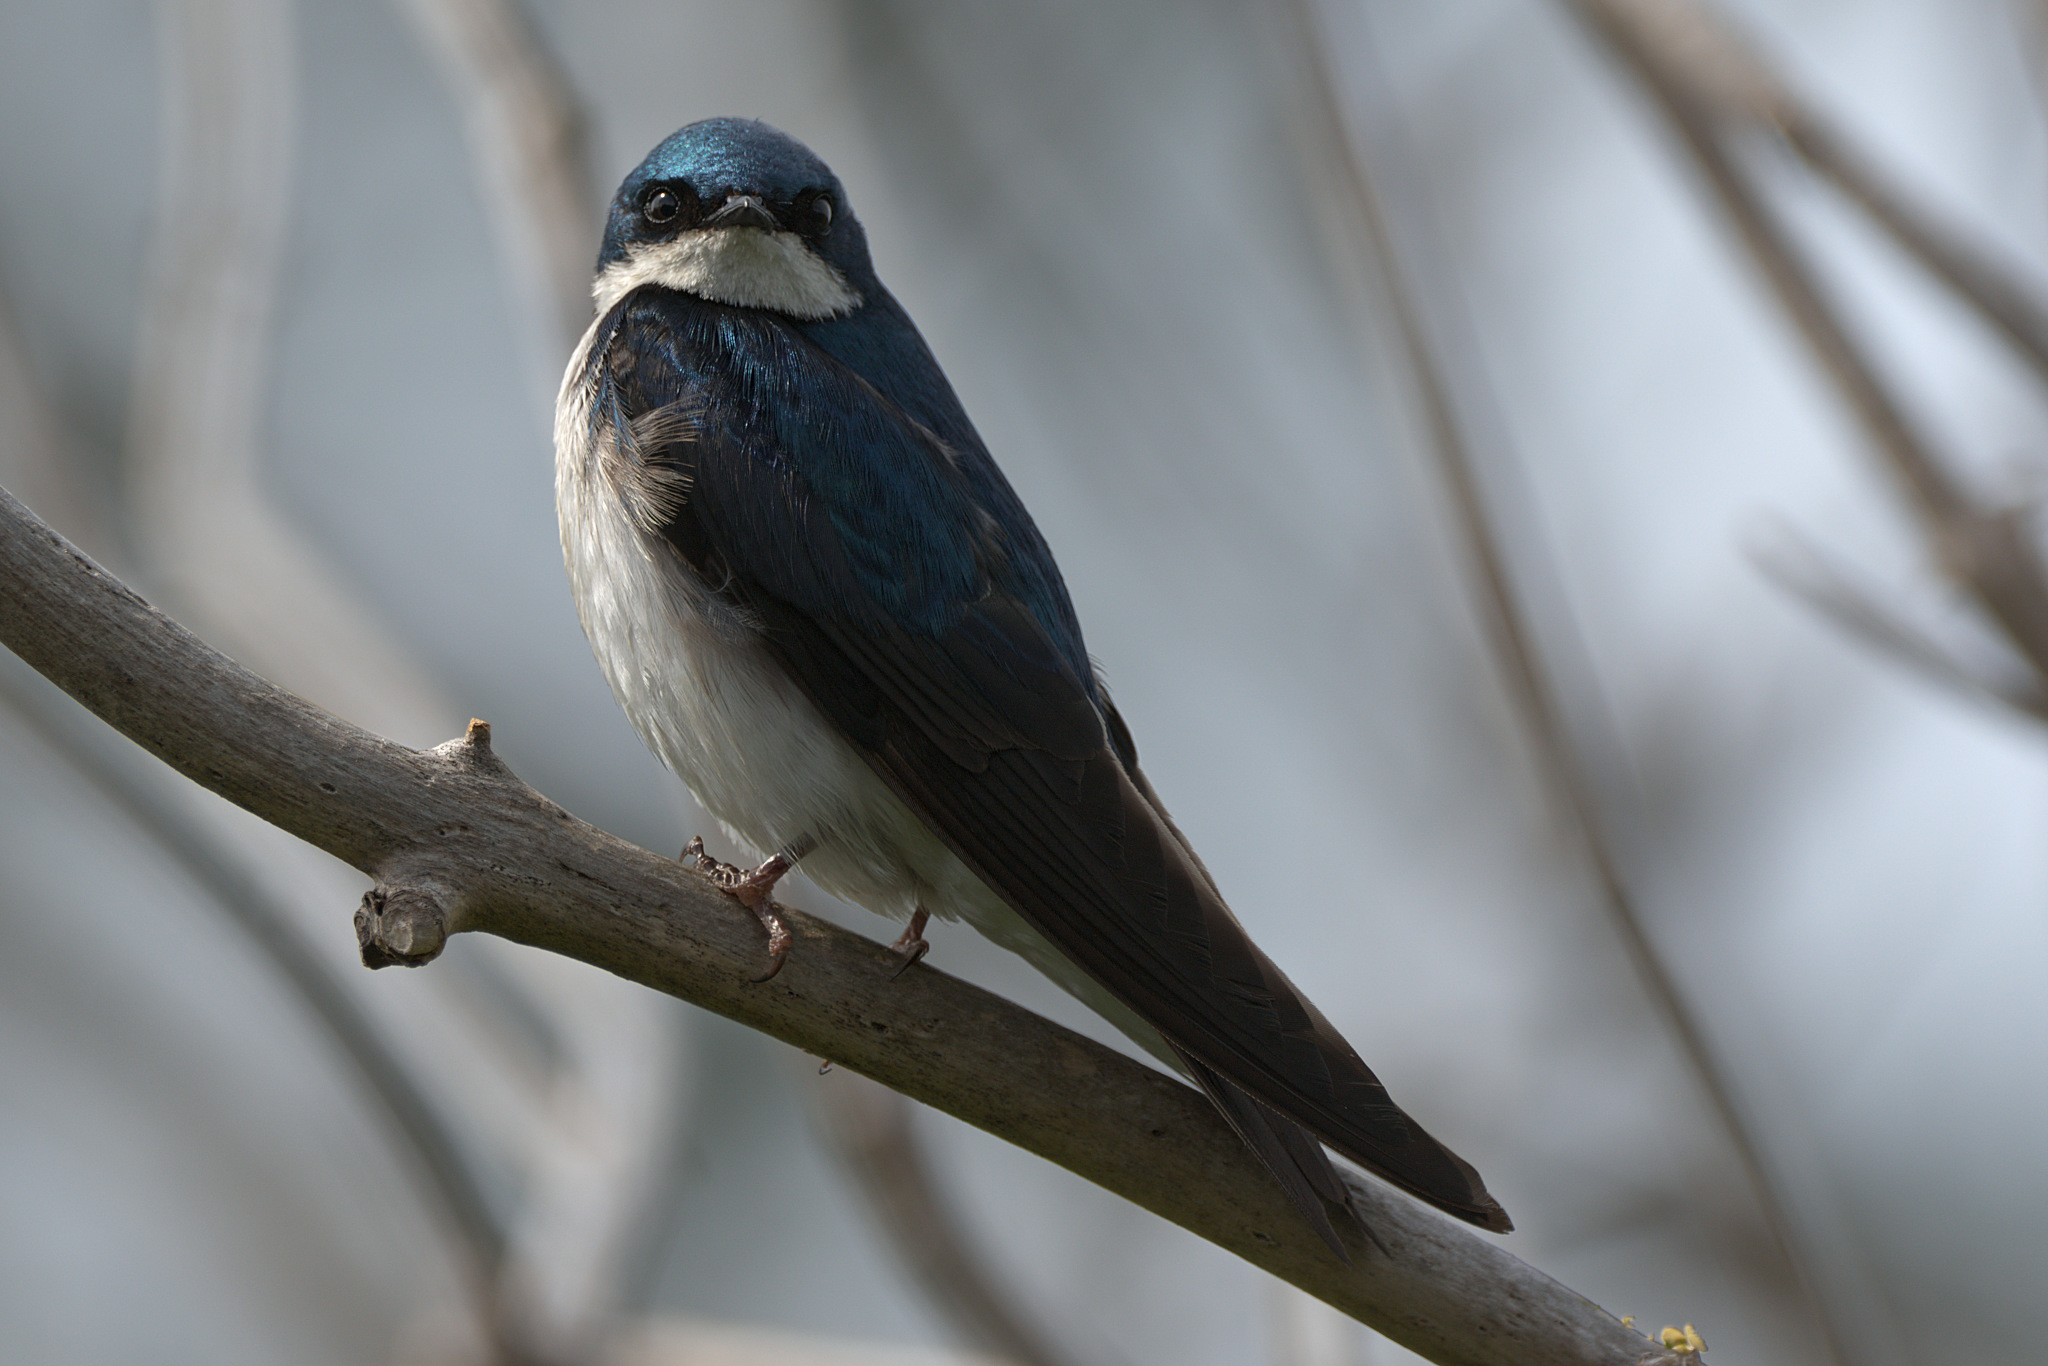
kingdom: Animalia
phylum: Chordata
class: Aves
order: Passeriformes
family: Hirundinidae
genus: Tachycineta
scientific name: Tachycineta bicolor
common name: Tree swallow
